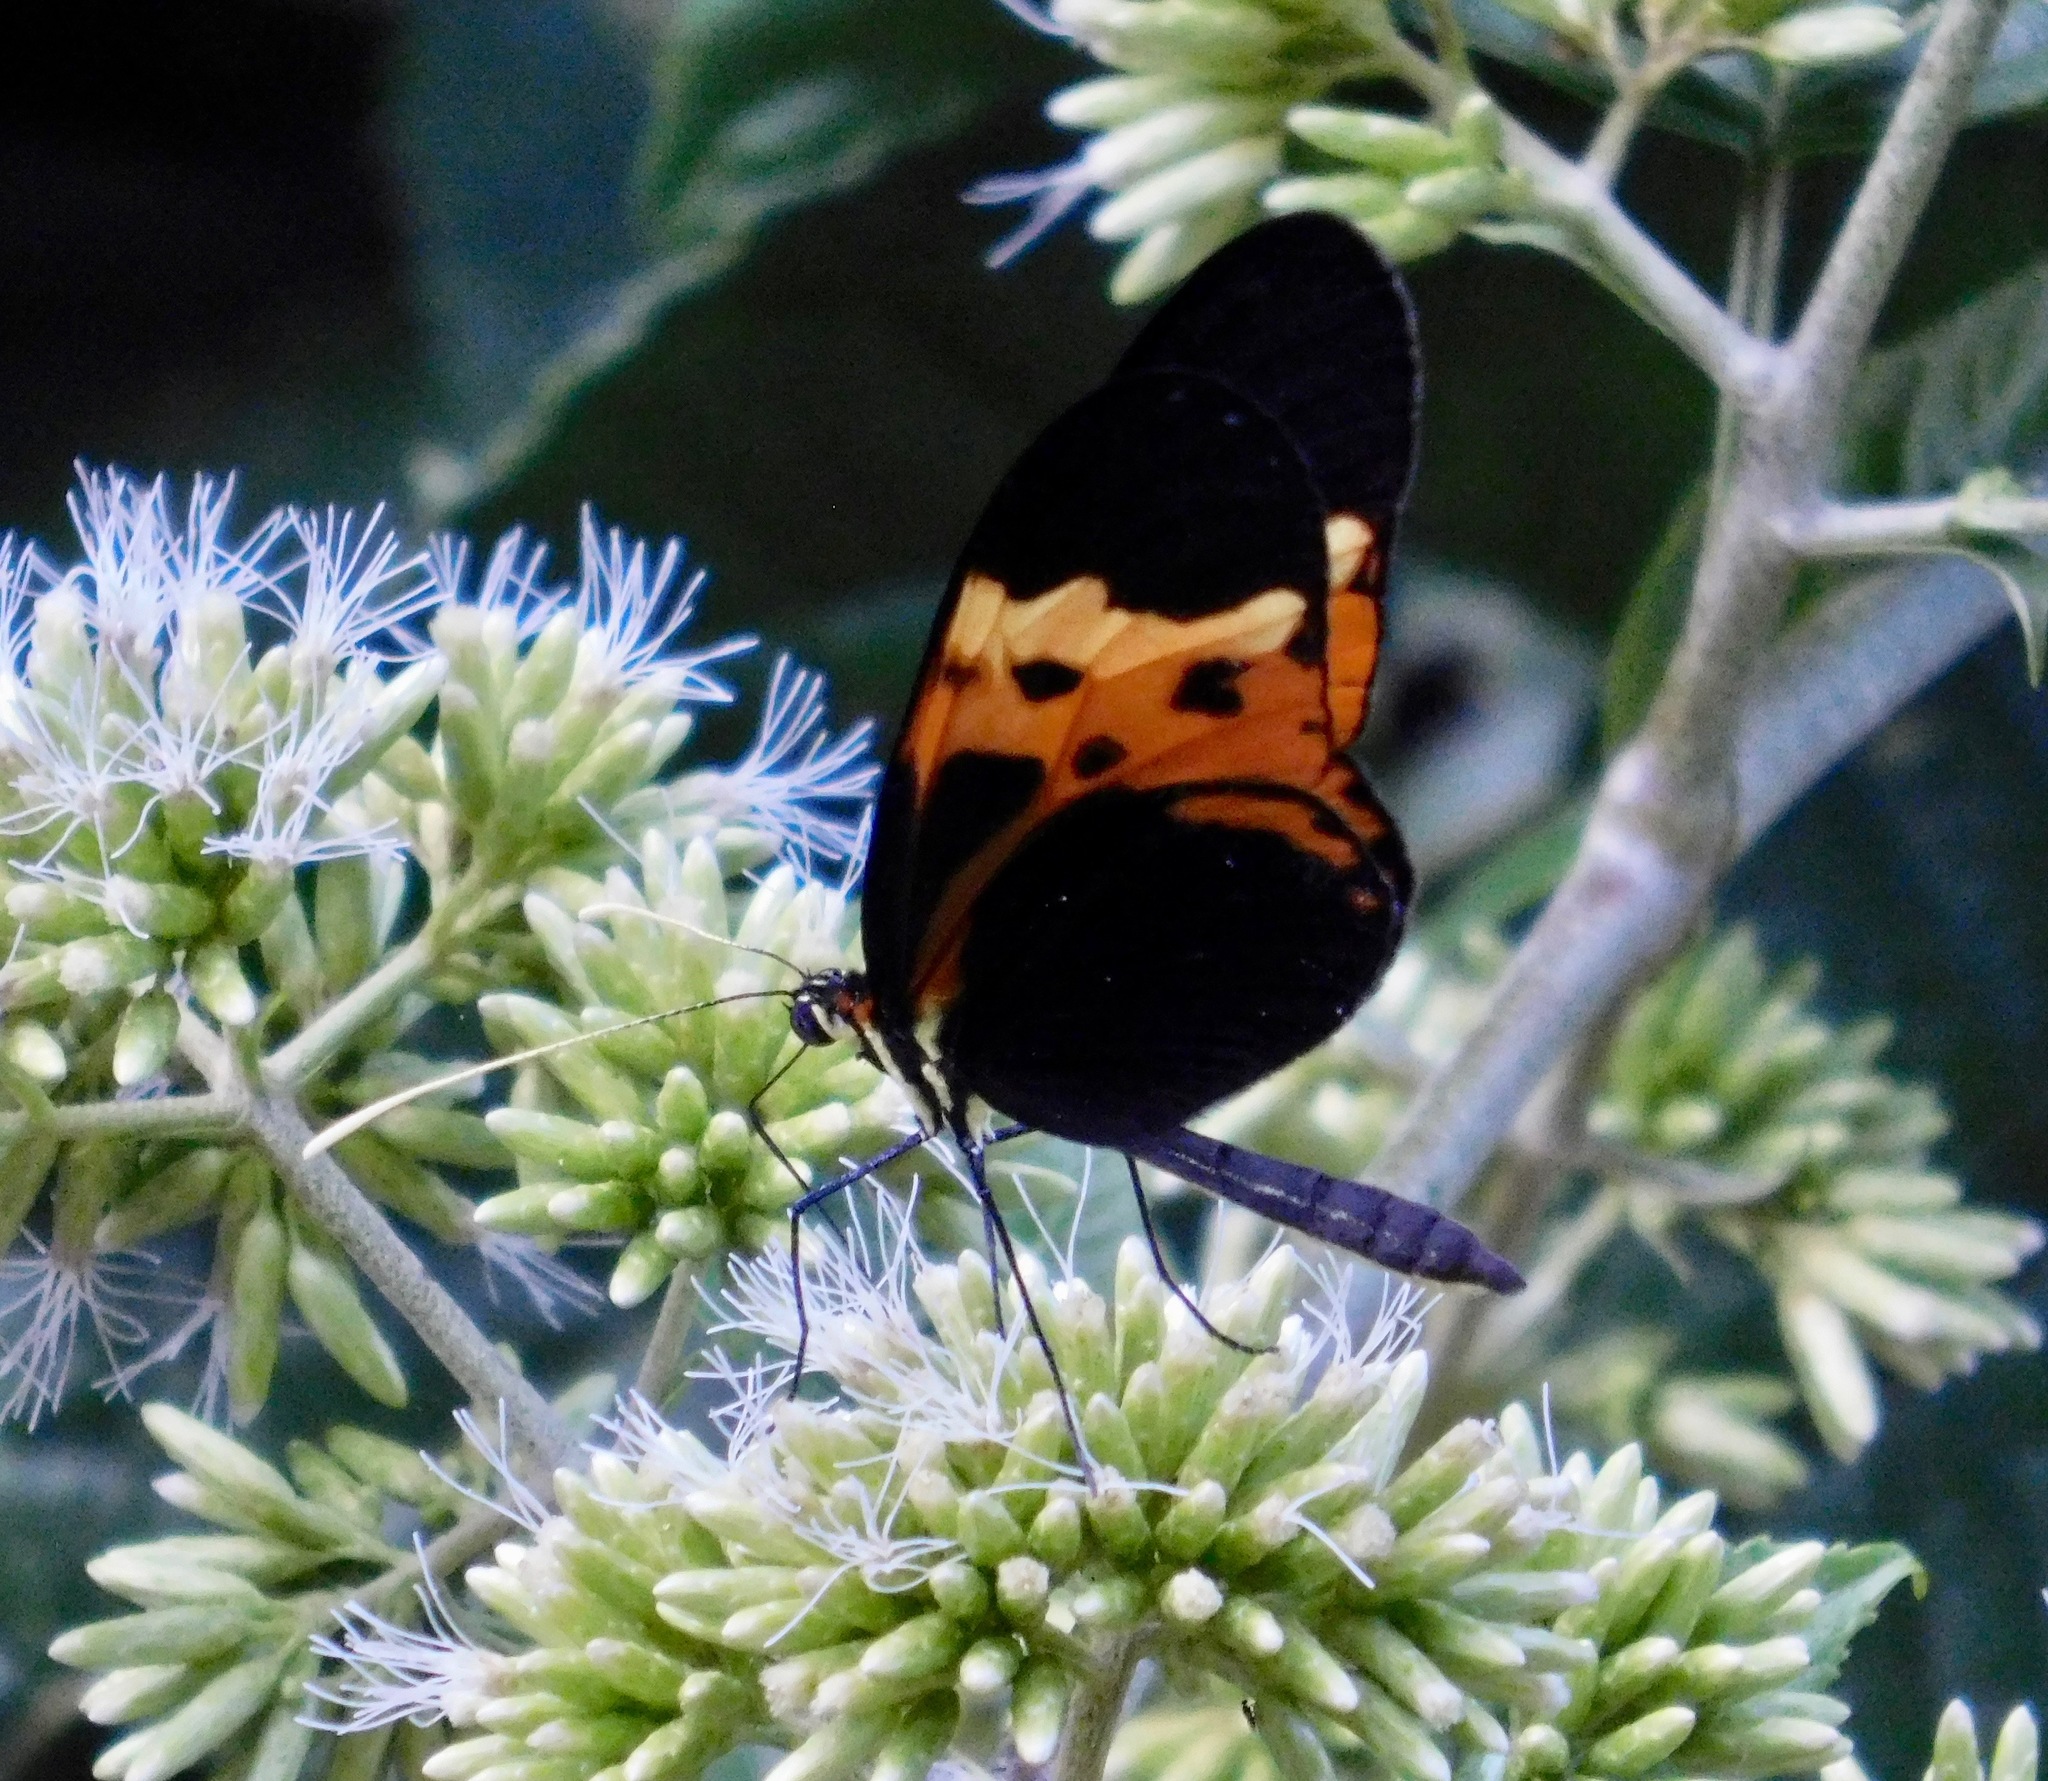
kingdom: Animalia
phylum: Arthropoda
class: Insecta
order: Lepidoptera
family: Nymphalidae
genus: Mechanitis
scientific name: Mechanitis mazaeus
